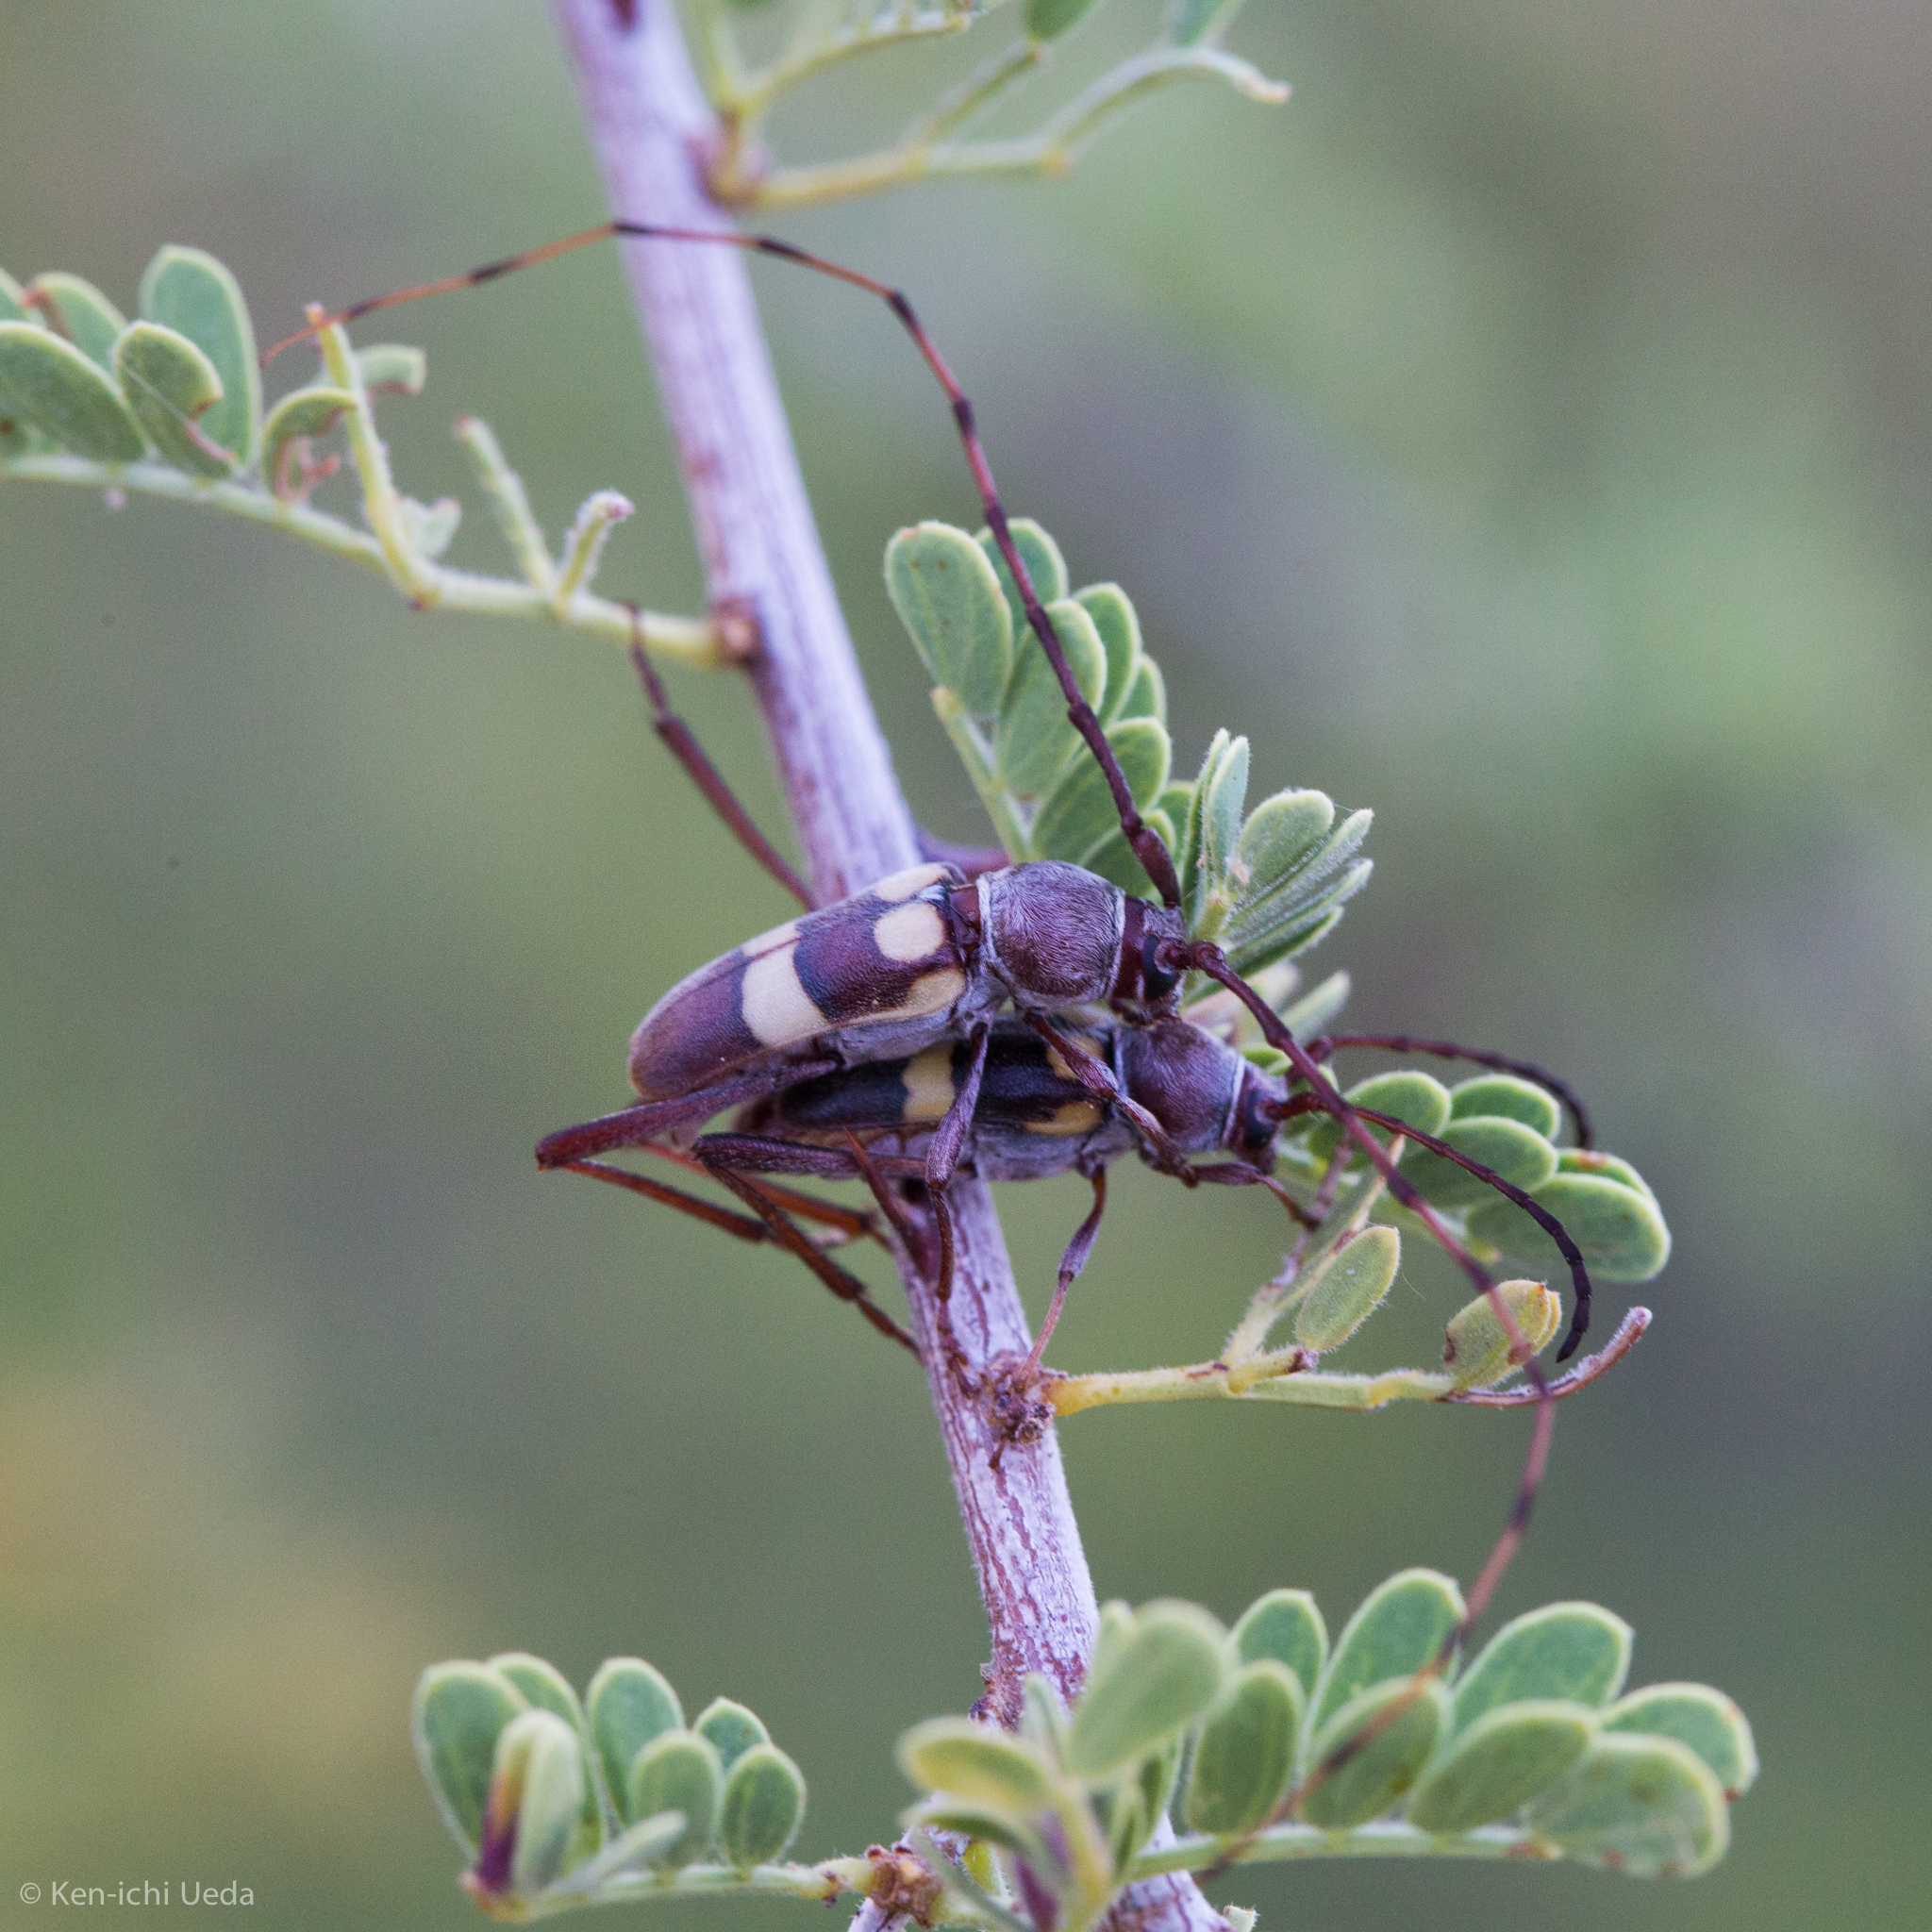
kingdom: Animalia
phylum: Arthropoda
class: Insecta
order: Coleoptera
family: Cerambycidae
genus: Aethecerinus
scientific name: Aethecerinus latecinctus
